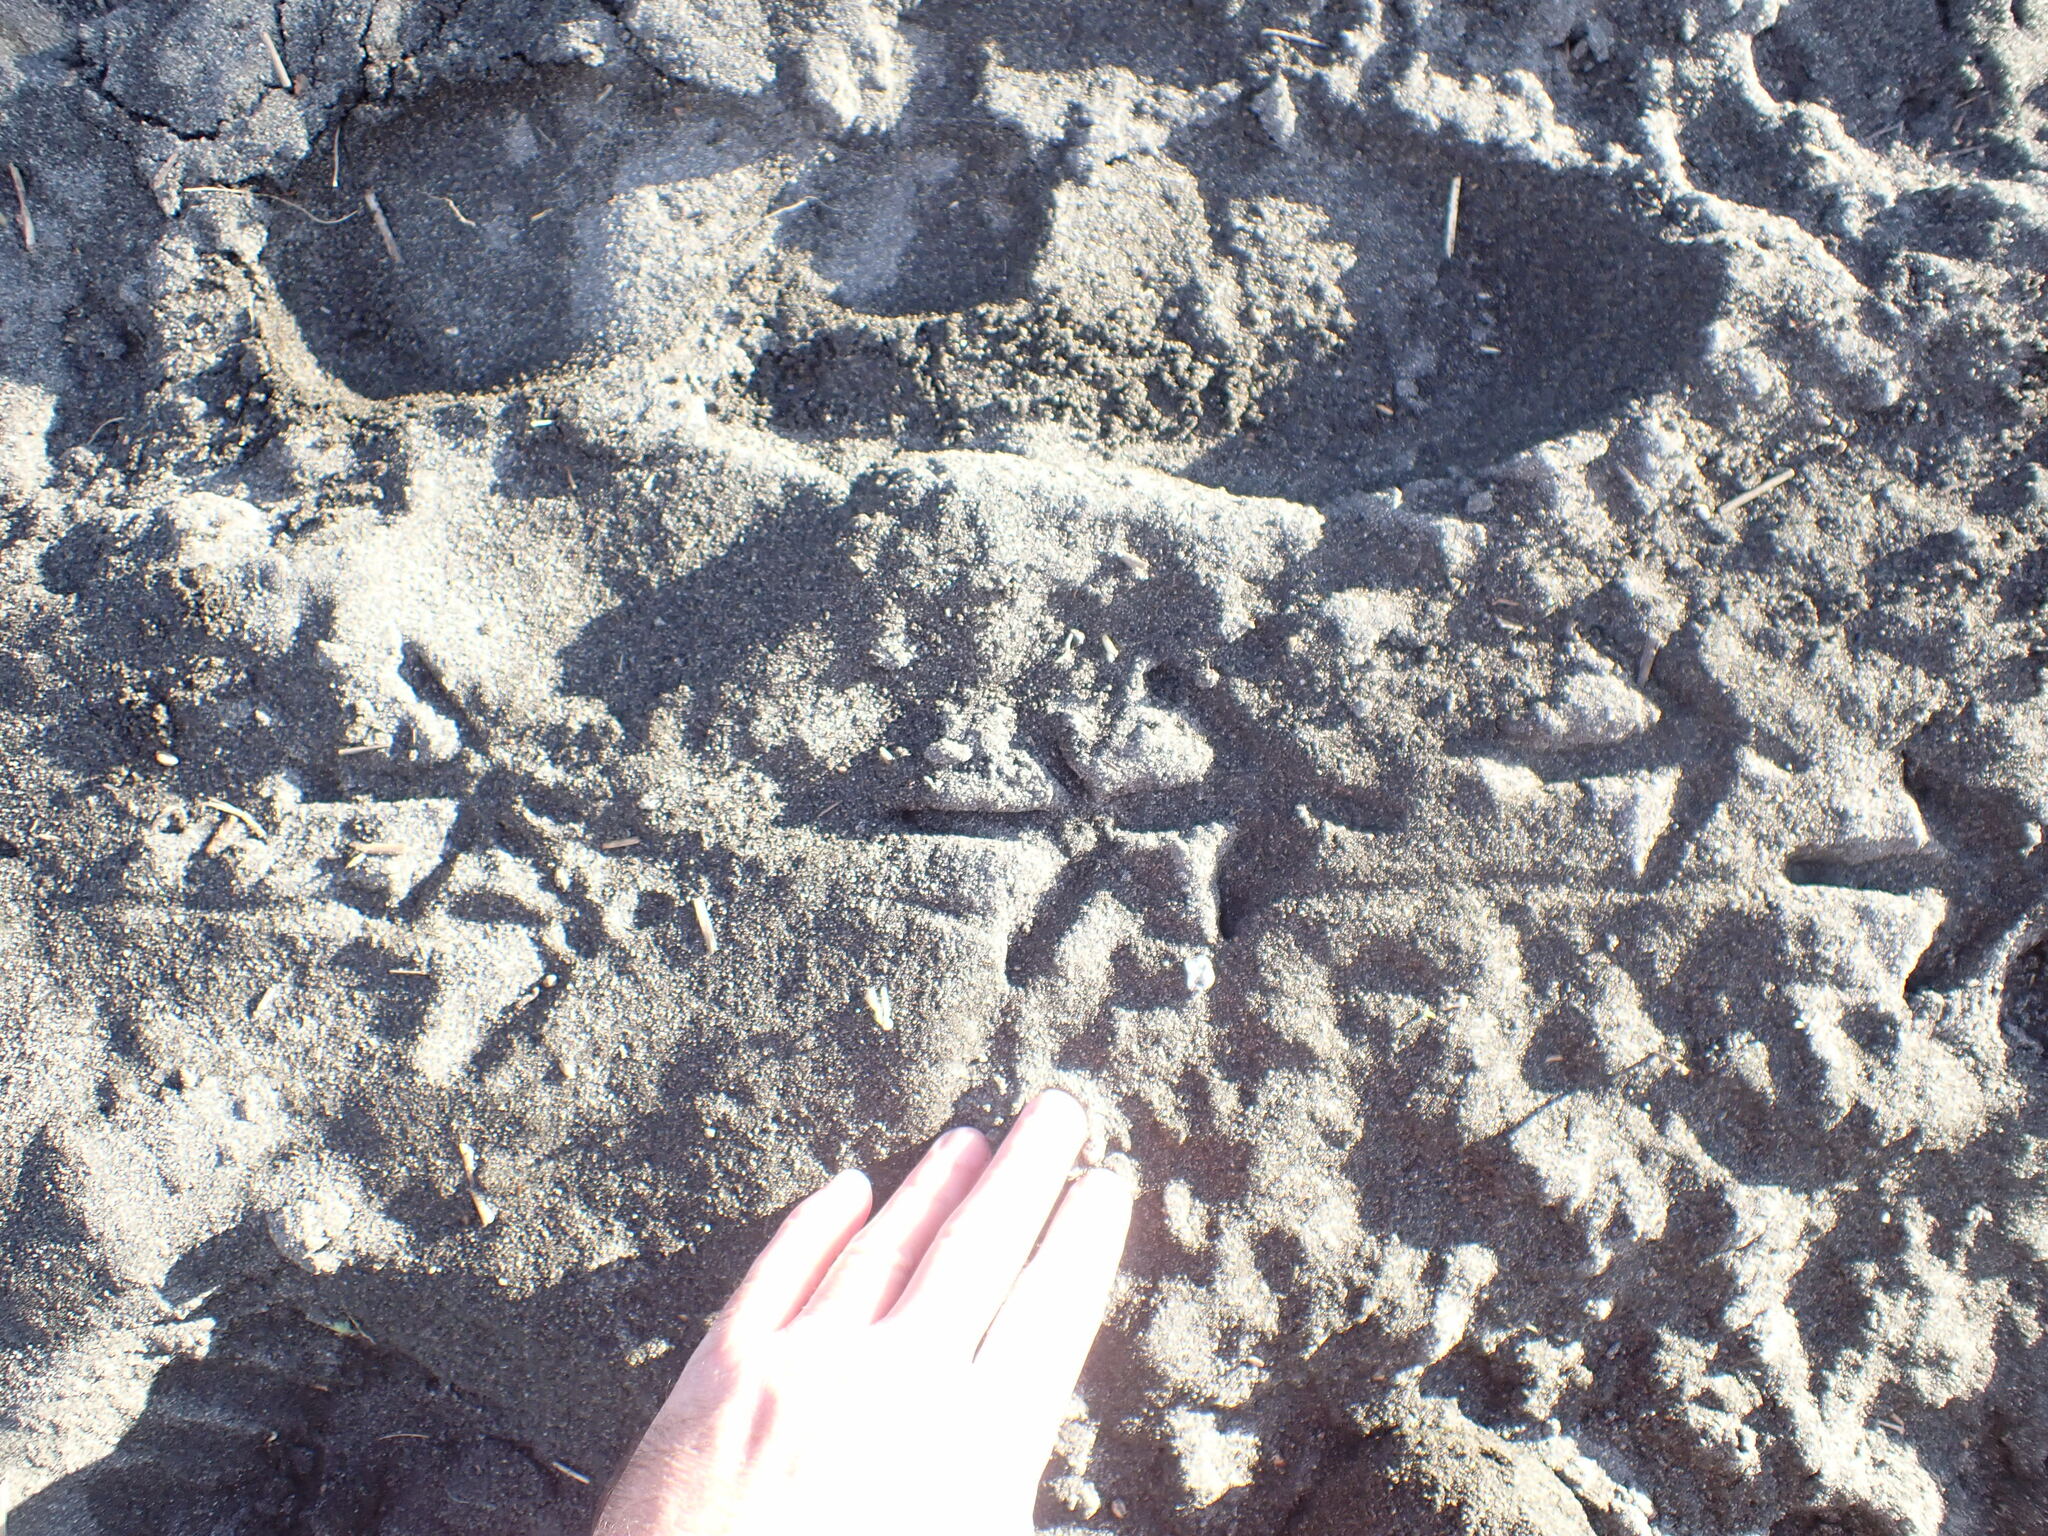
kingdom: Animalia
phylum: Chordata
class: Aves
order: Gruiformes
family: Rallidae
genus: Porphyrio
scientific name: Porphyrio melanotus
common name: Australasian swamphen
